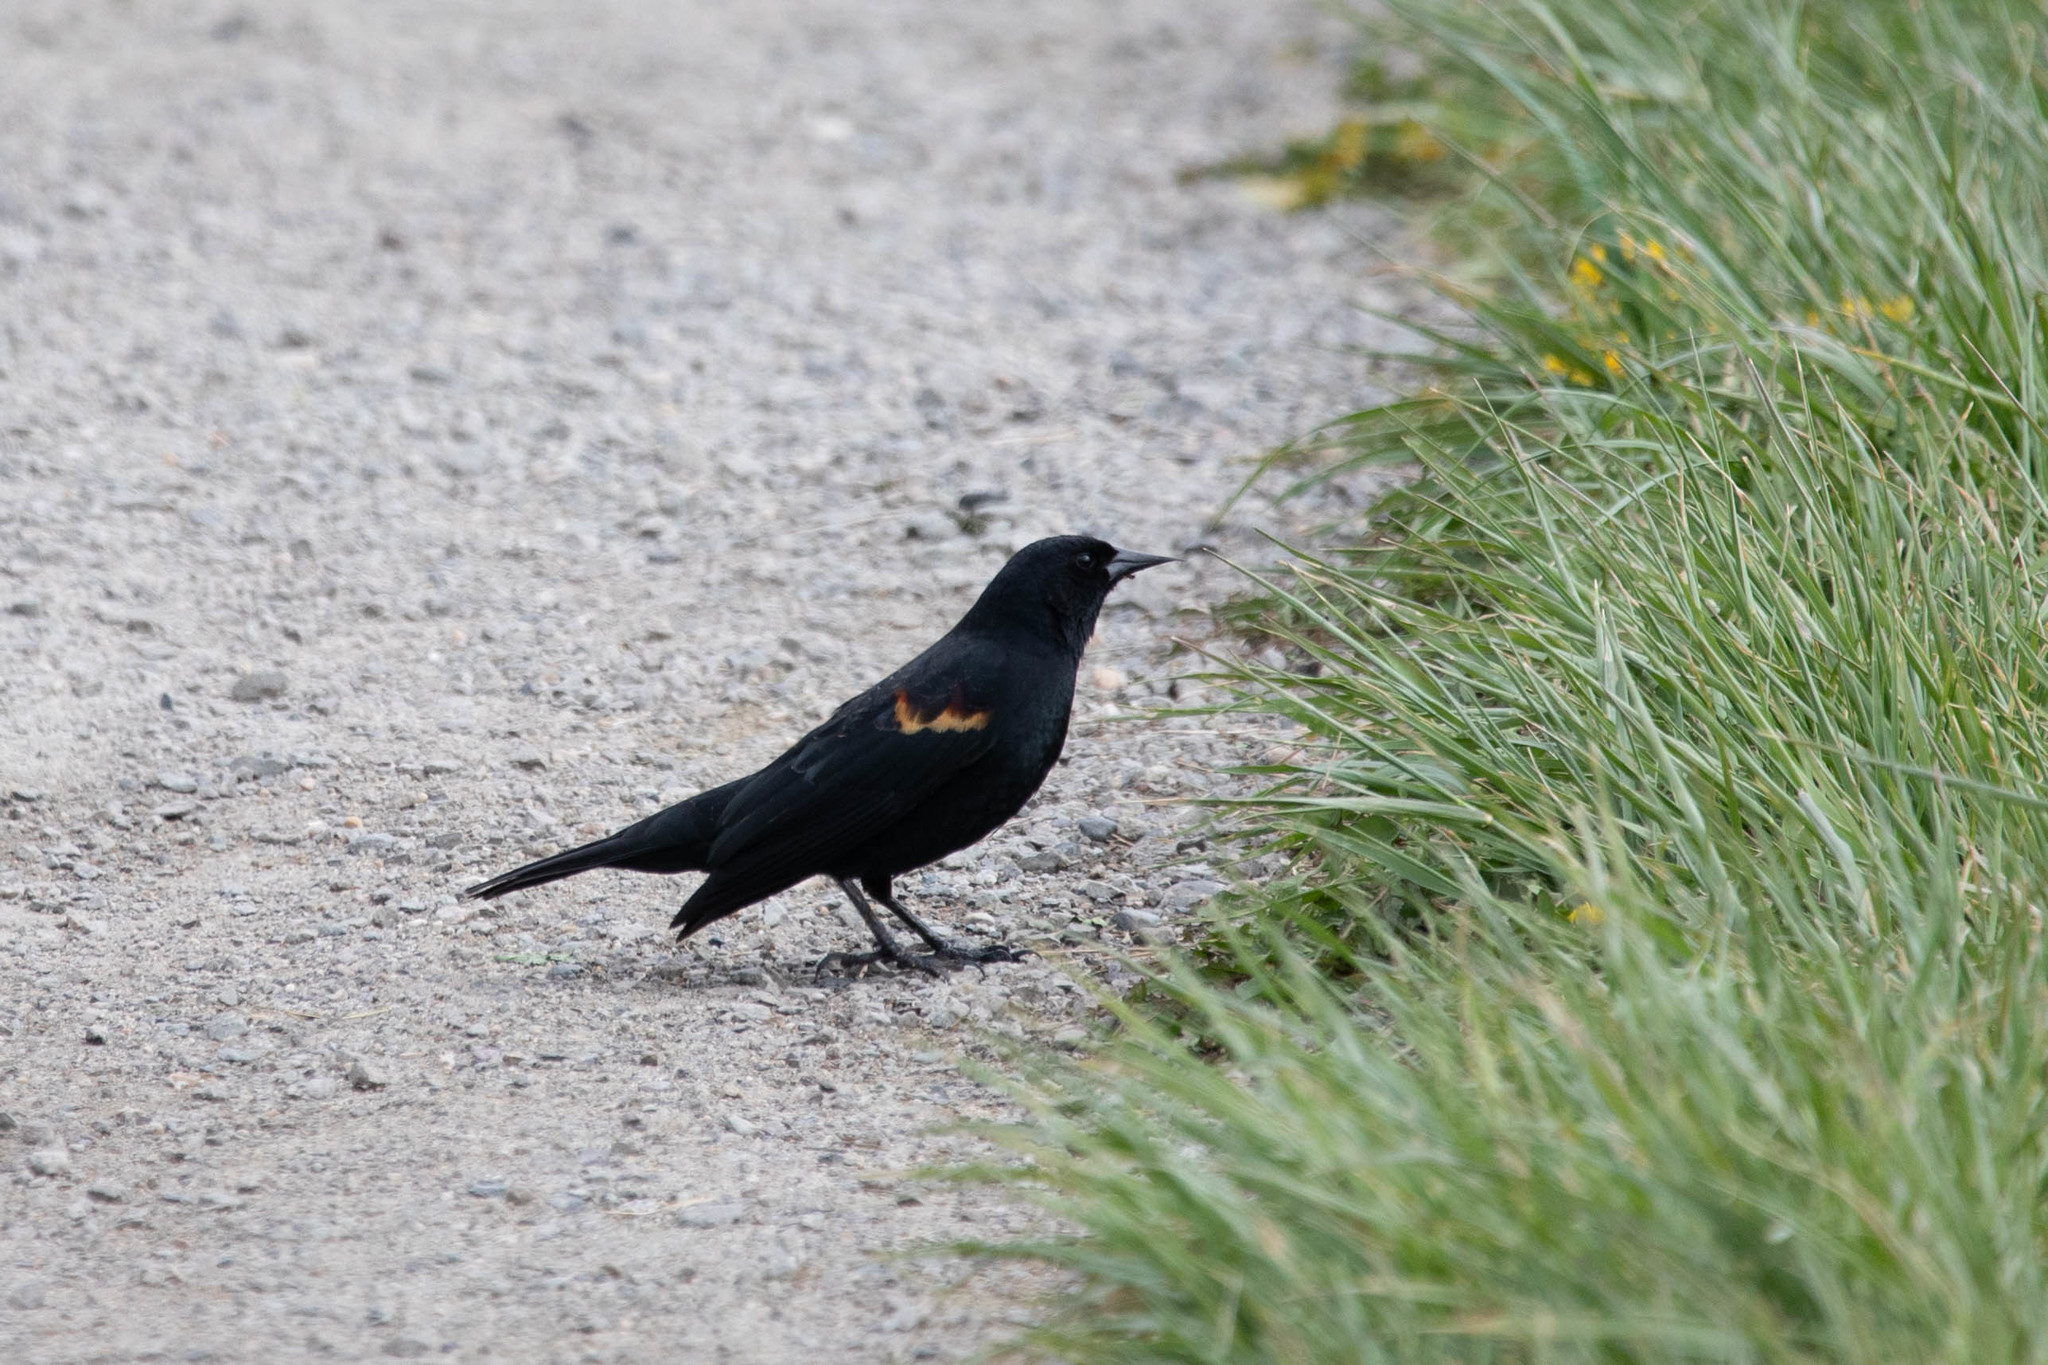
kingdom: Animalia
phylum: Chordata
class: Aves
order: Passeriformes
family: Icteridae
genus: Agelaius
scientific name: Agelaius phoeniceus
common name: Red-winged blackbird
